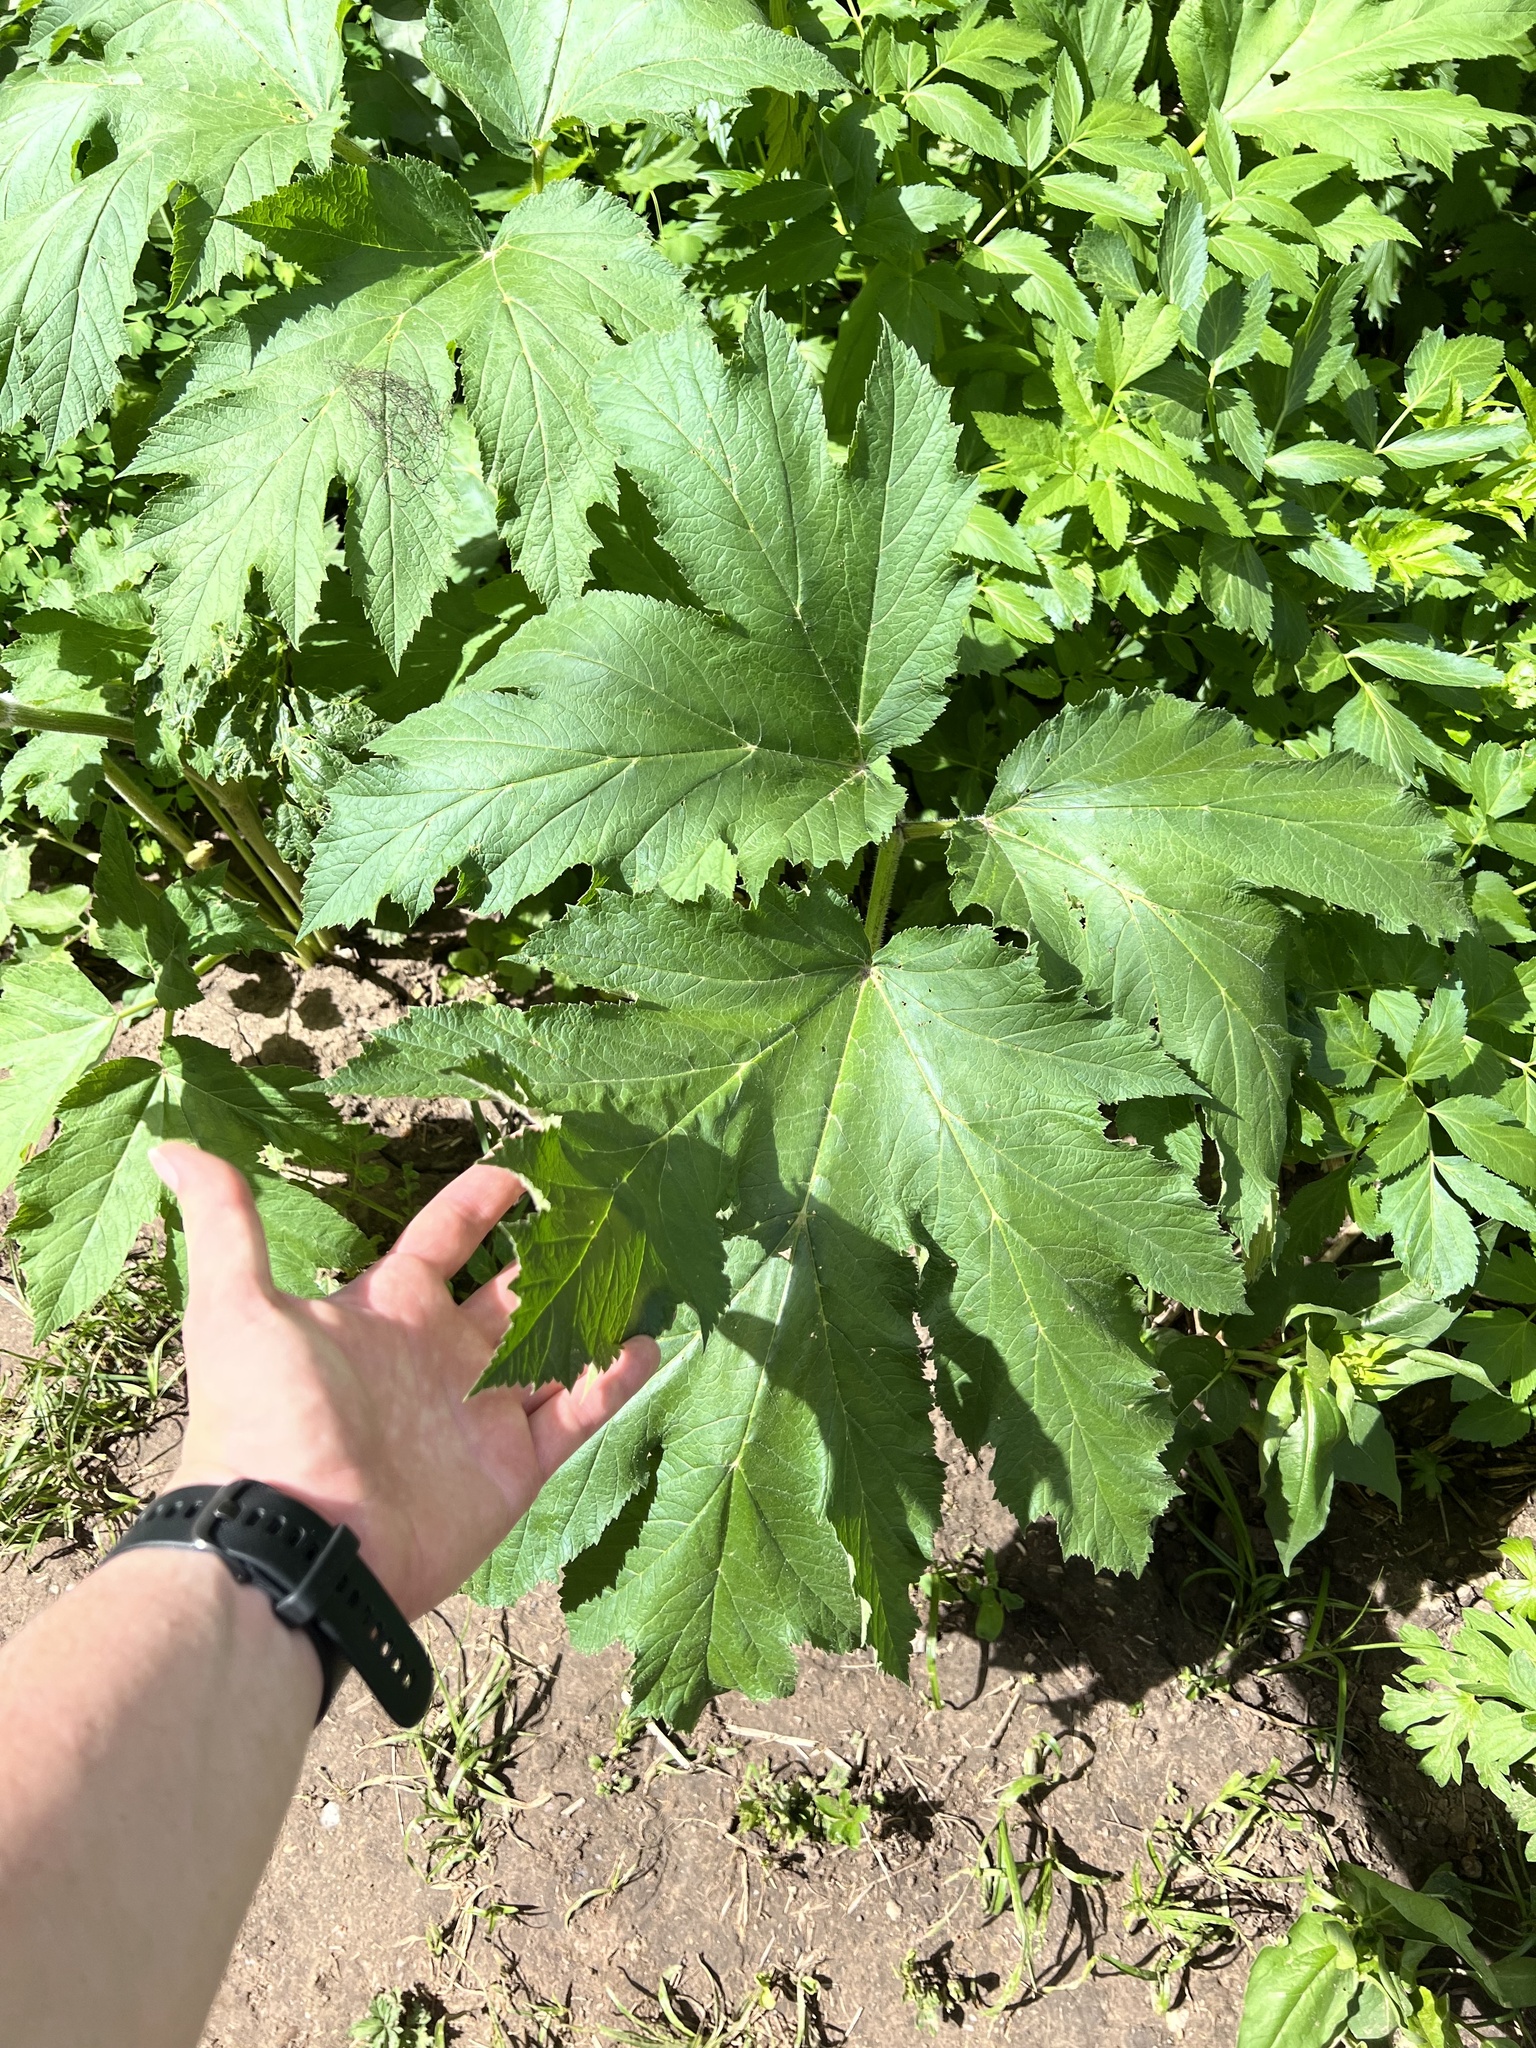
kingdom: Plantae
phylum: Tracheophyta
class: Magnoliopsida
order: Apiales
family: Apiaceae
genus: Heracleum
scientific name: Heracleum maximum
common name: American cow parsnip
